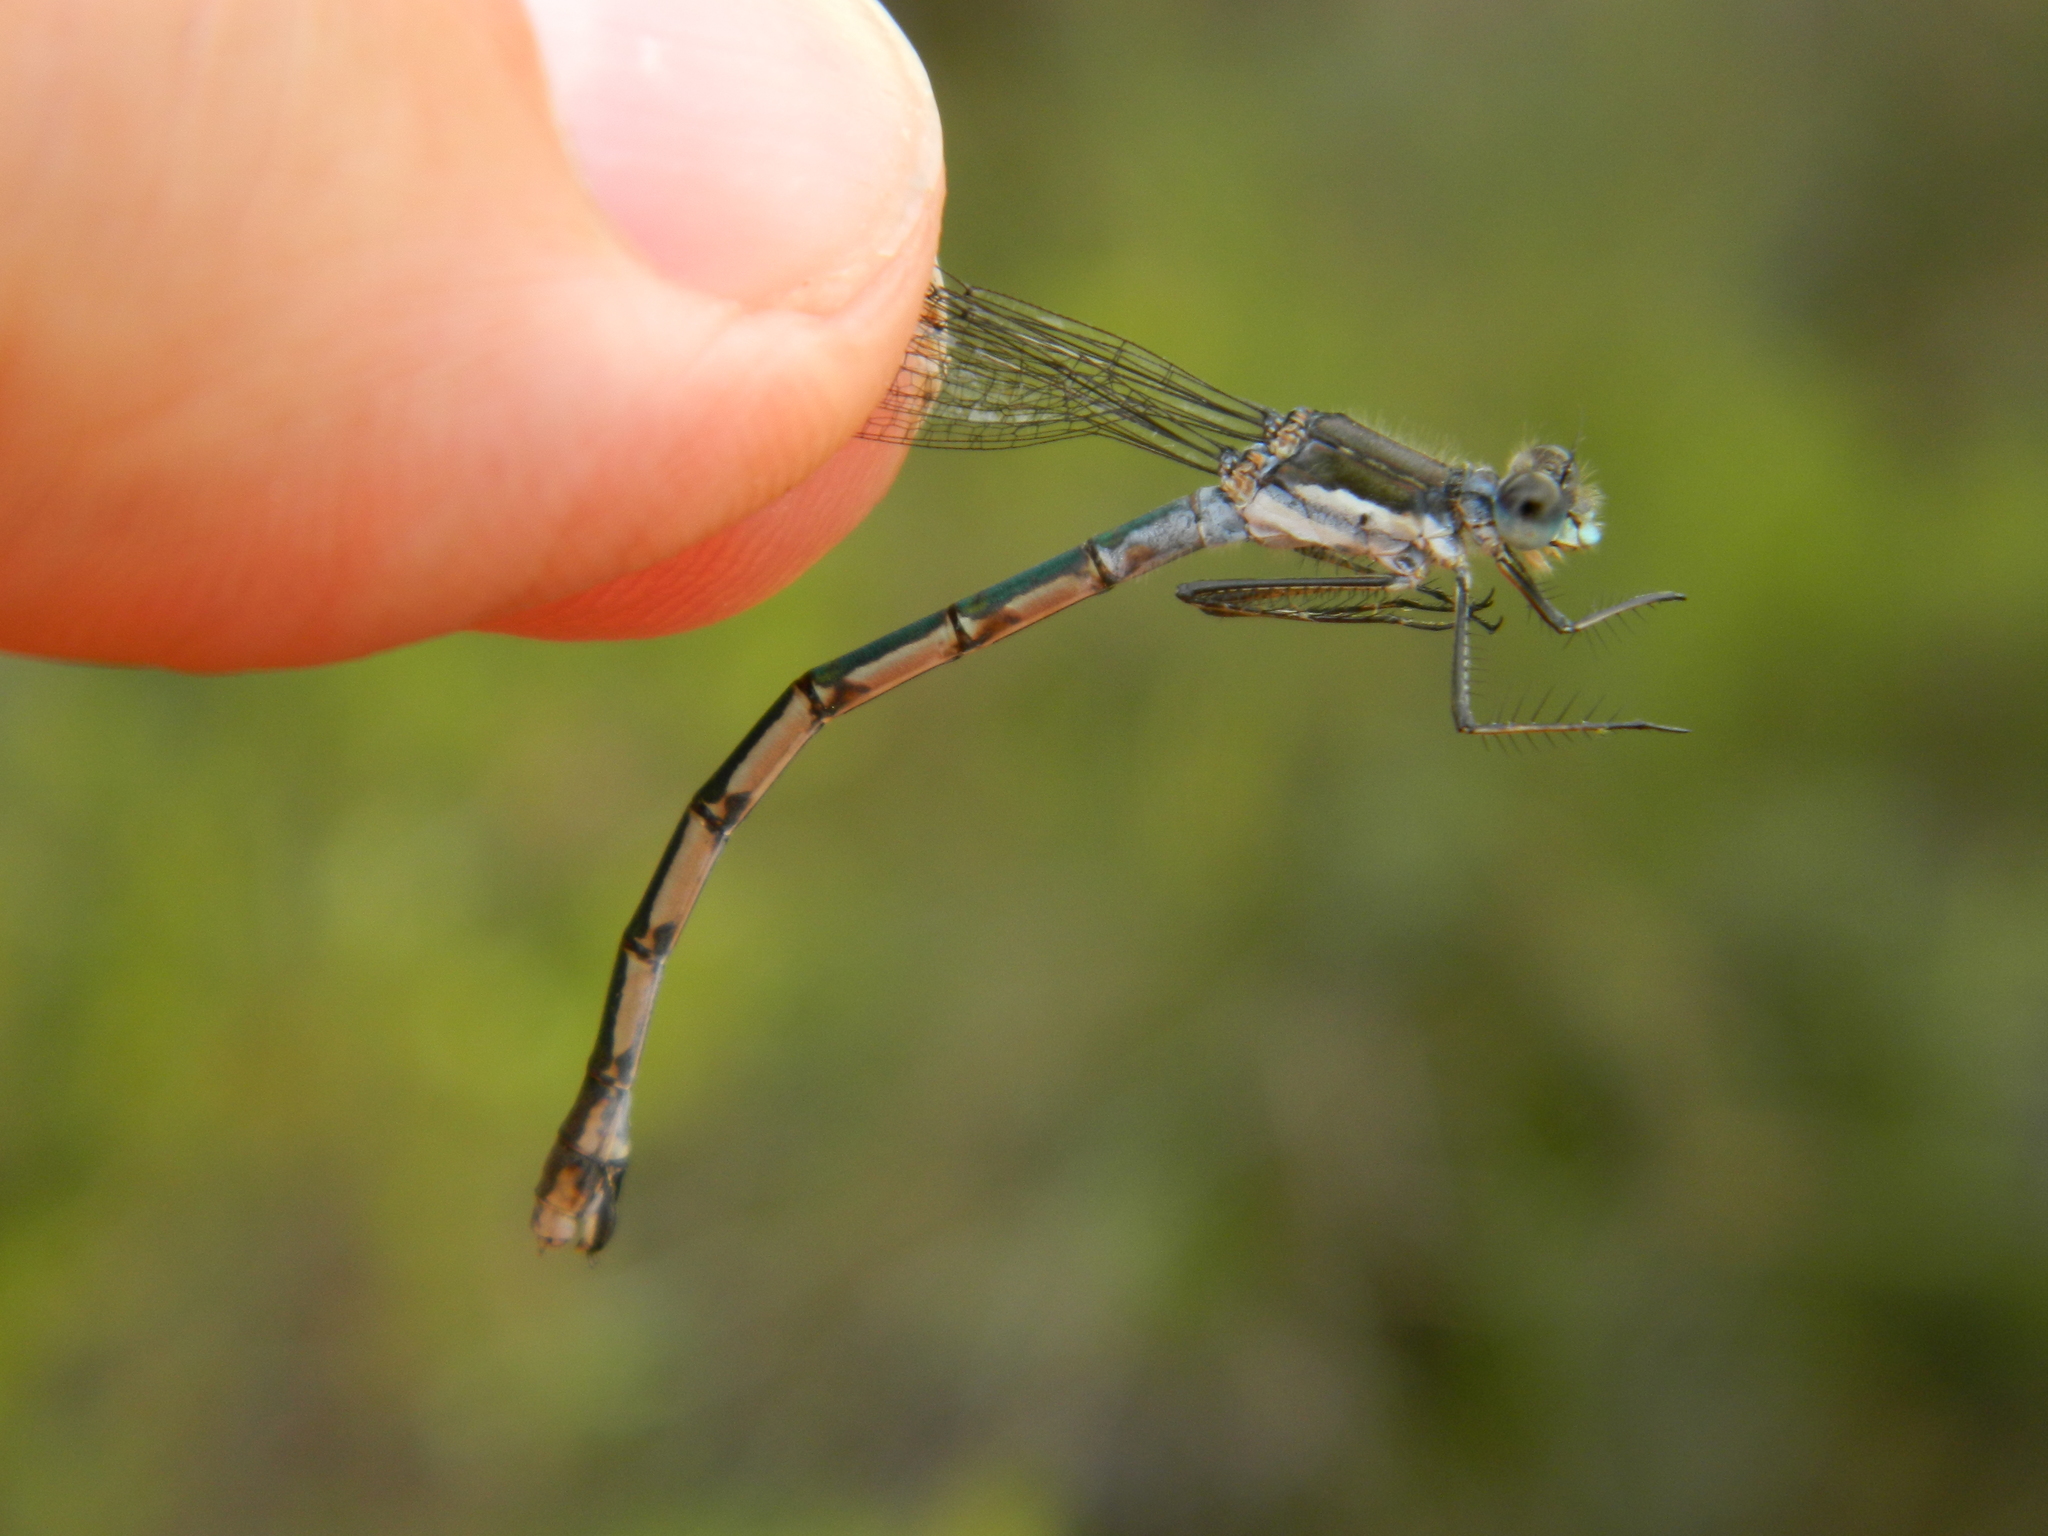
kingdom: Animalia
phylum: Arthropoda
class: Insecta
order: Odonata
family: Lestidae
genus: Lestes
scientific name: Lestes disjunctus
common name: Northern spreadwing
